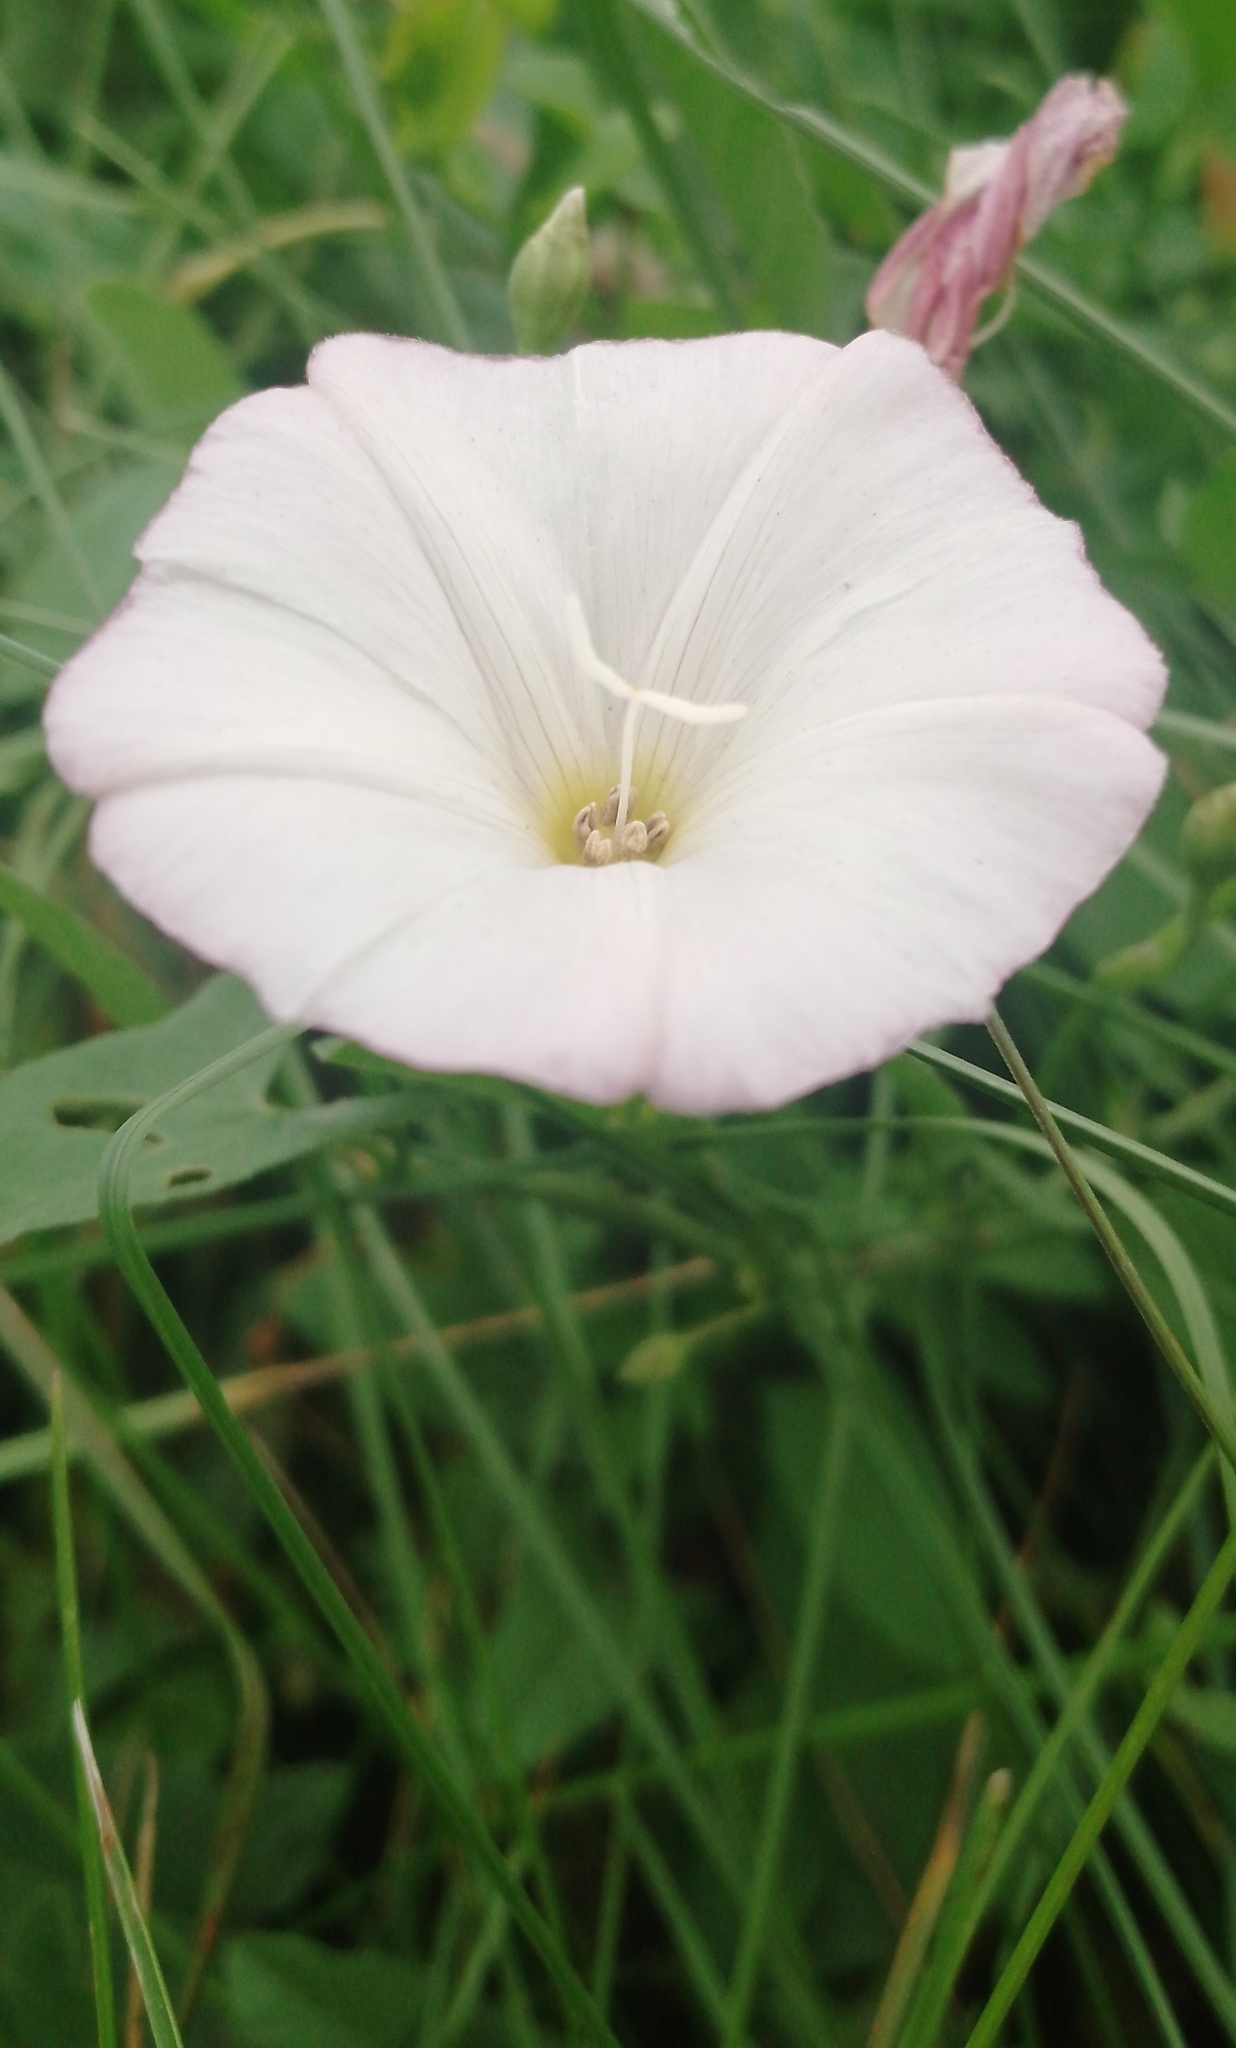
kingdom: Plantae
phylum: Tracheophyta
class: Magnoliopsida
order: Solanales
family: Convolvulaceae
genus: Convolvulus
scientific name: Convolvulus arvensis
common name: Field bindweed
